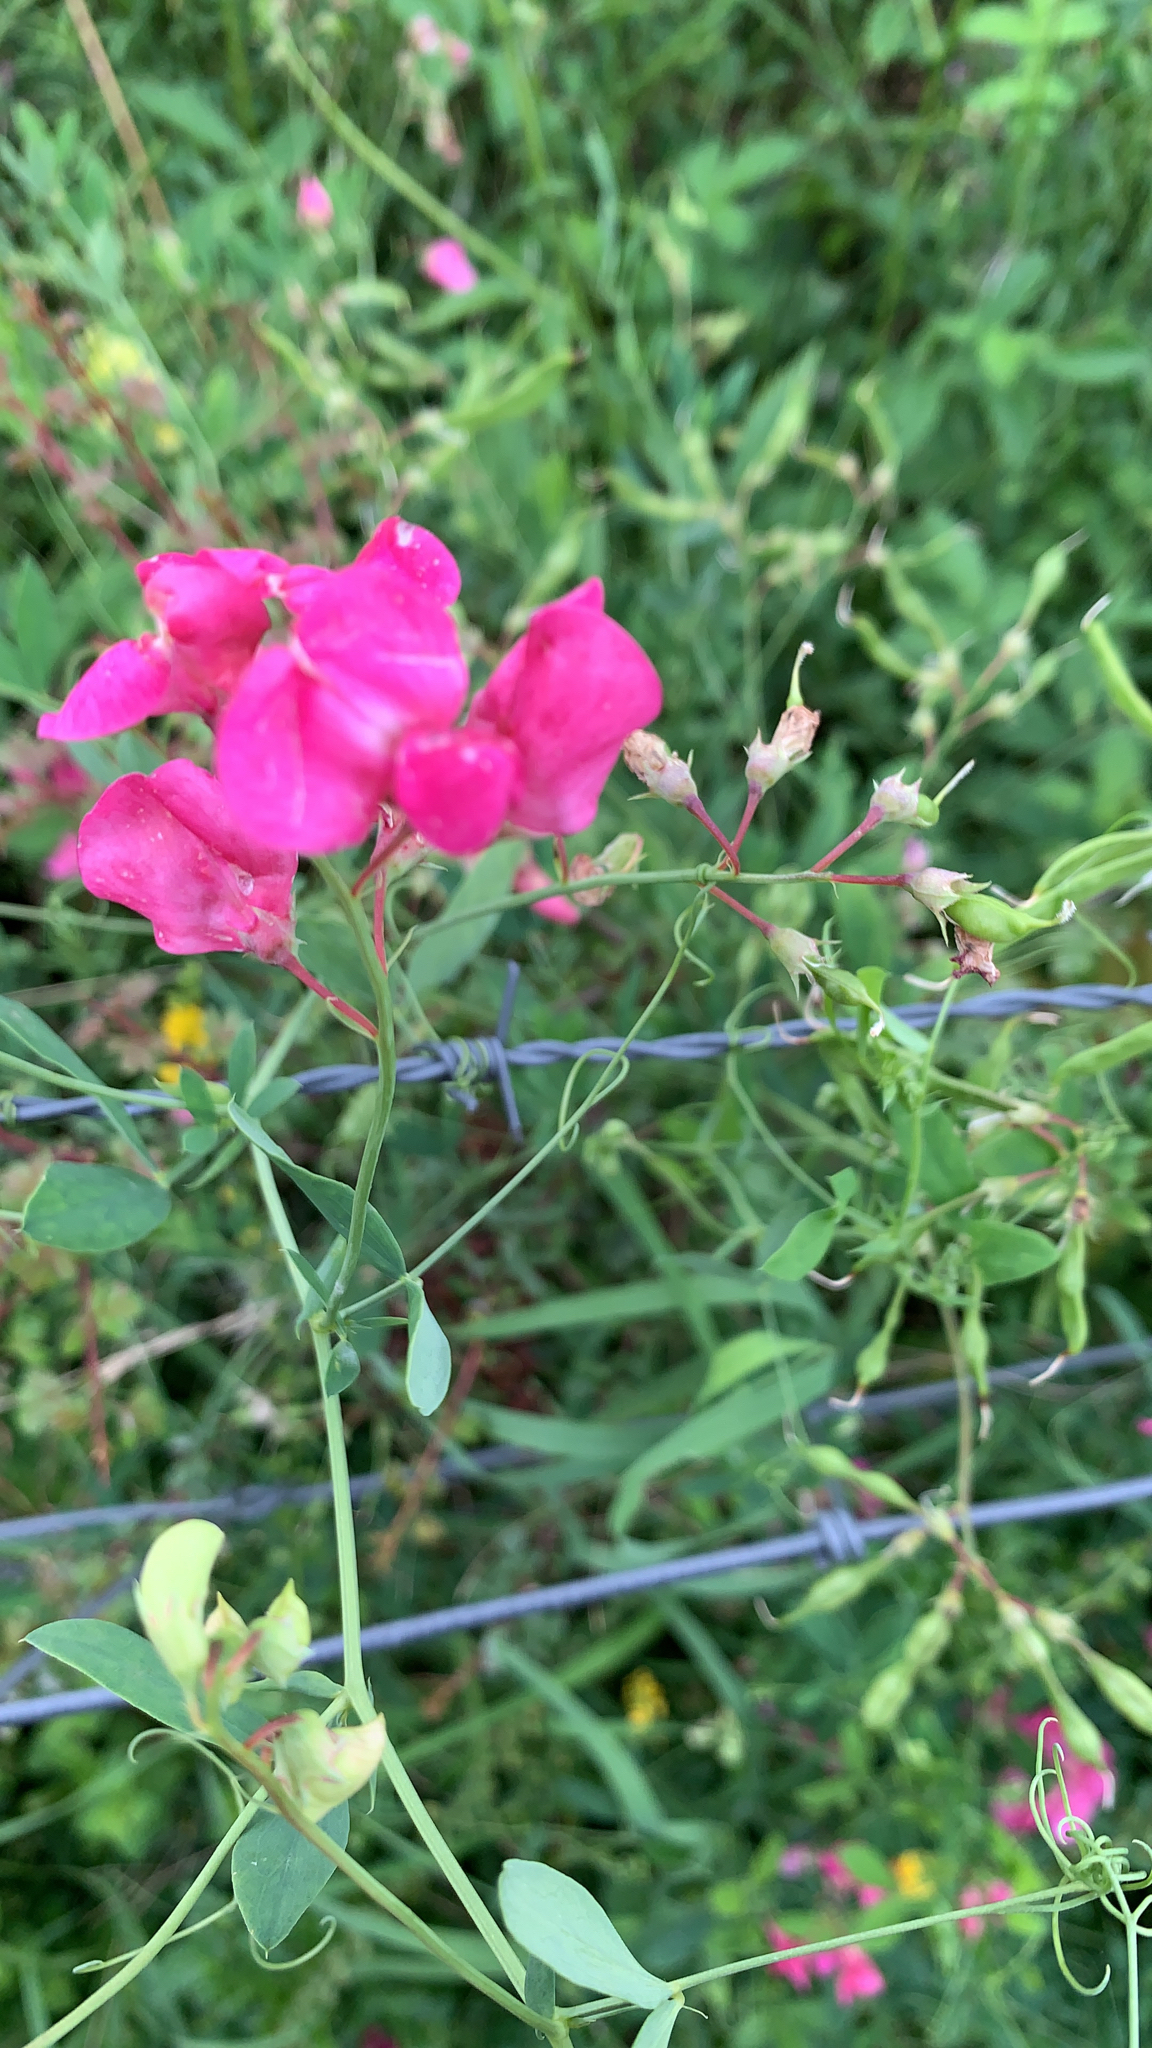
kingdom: Plantae
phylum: Tracheophyta
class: Magnoliopsida
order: Fabales
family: Fabaceae
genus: Lathyrus
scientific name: Lathyrus tuberosus
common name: Tuberous pea
